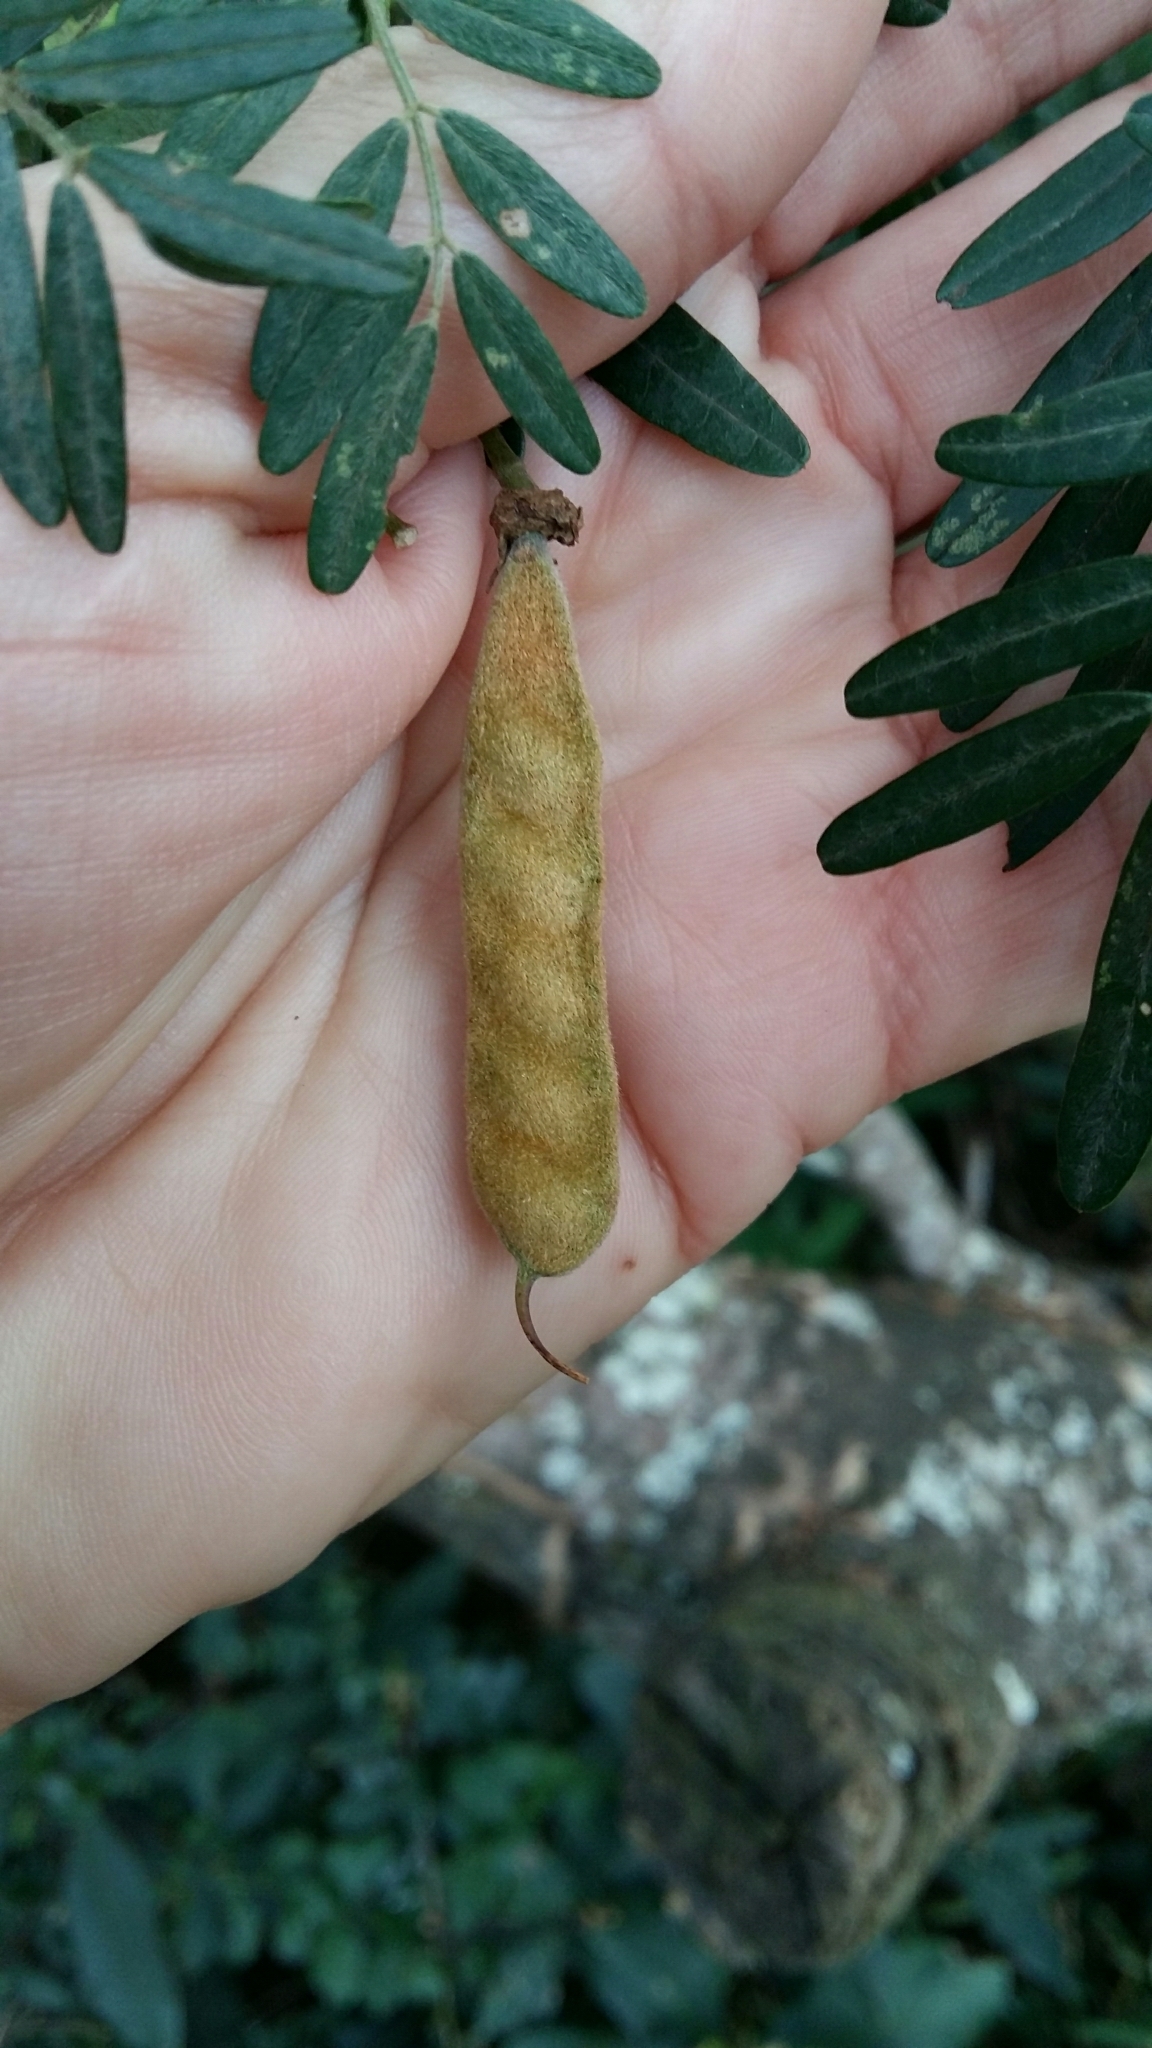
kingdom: Plantae
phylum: Tracheophyta
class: Magnoliopsida
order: Fabales
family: Fabaceae
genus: Virgilia
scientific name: Virgilia divaricata
